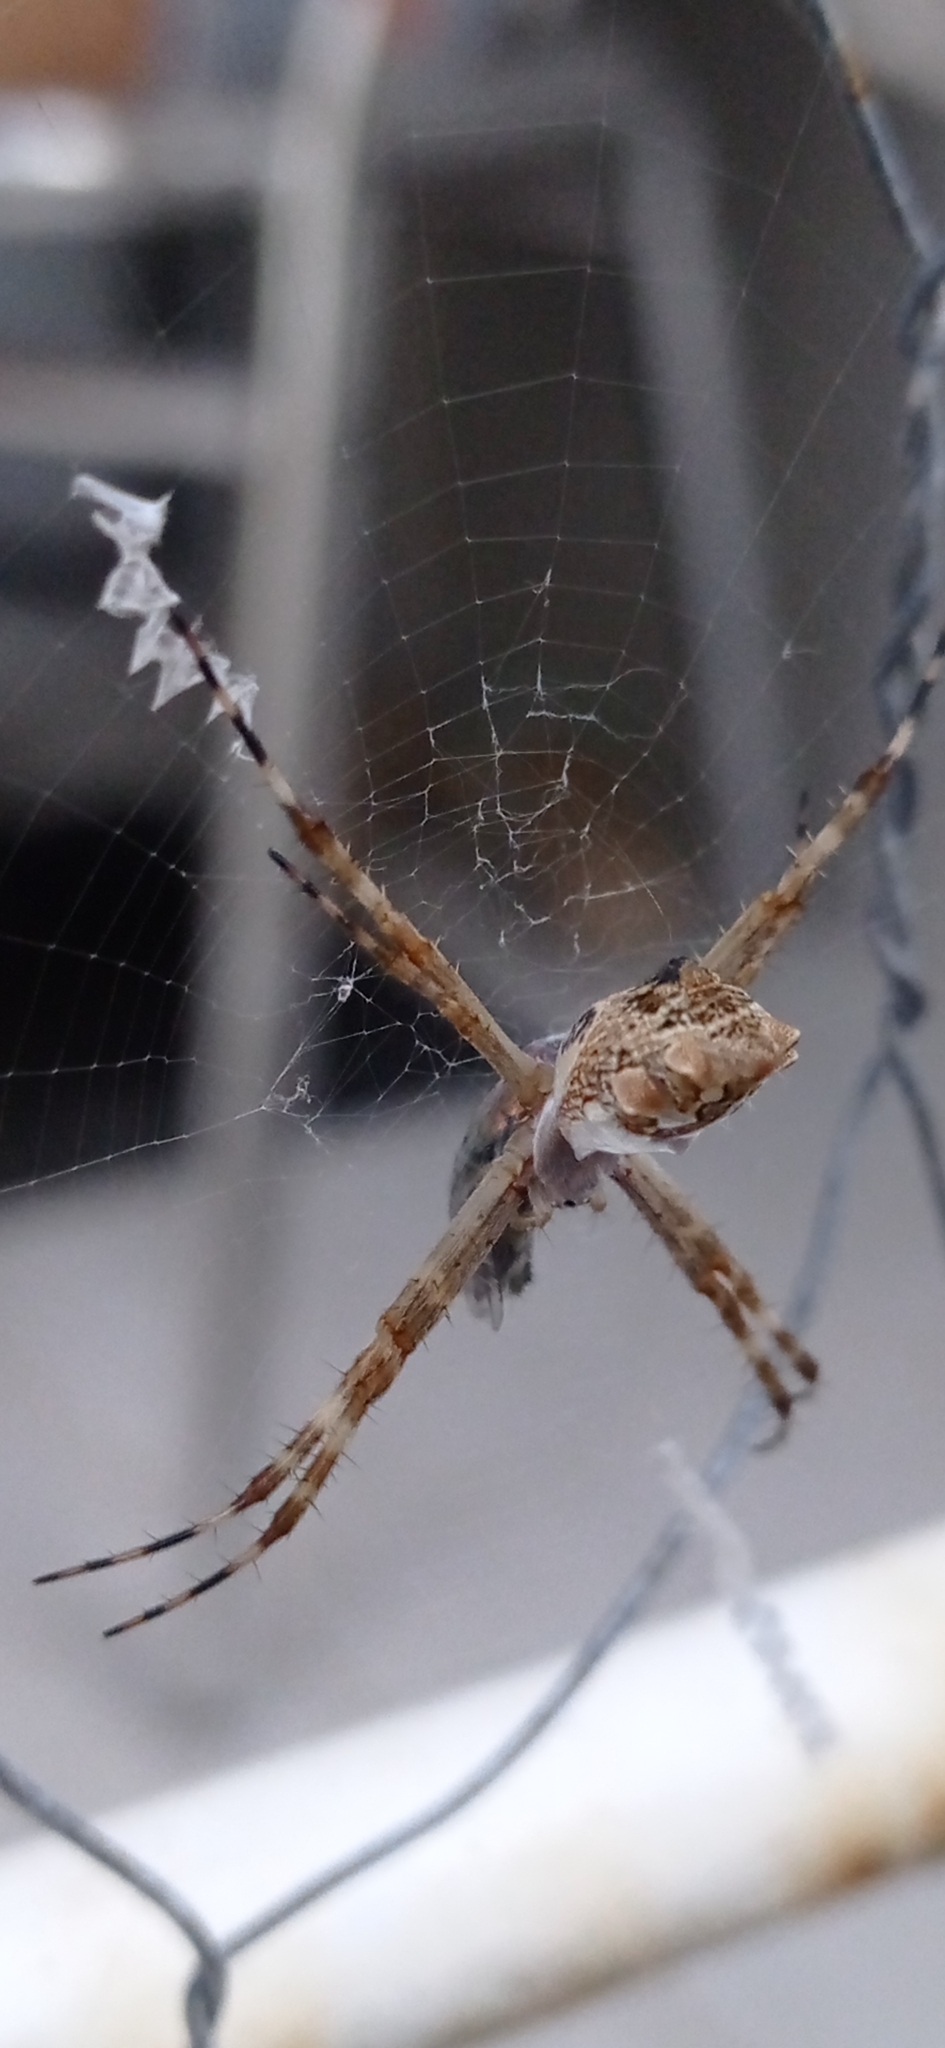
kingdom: Animalia
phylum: Arthropoda
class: Arachnida
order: Araneae
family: Araneidae
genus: Argiope
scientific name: Argiope argentata
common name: Orb weavers
